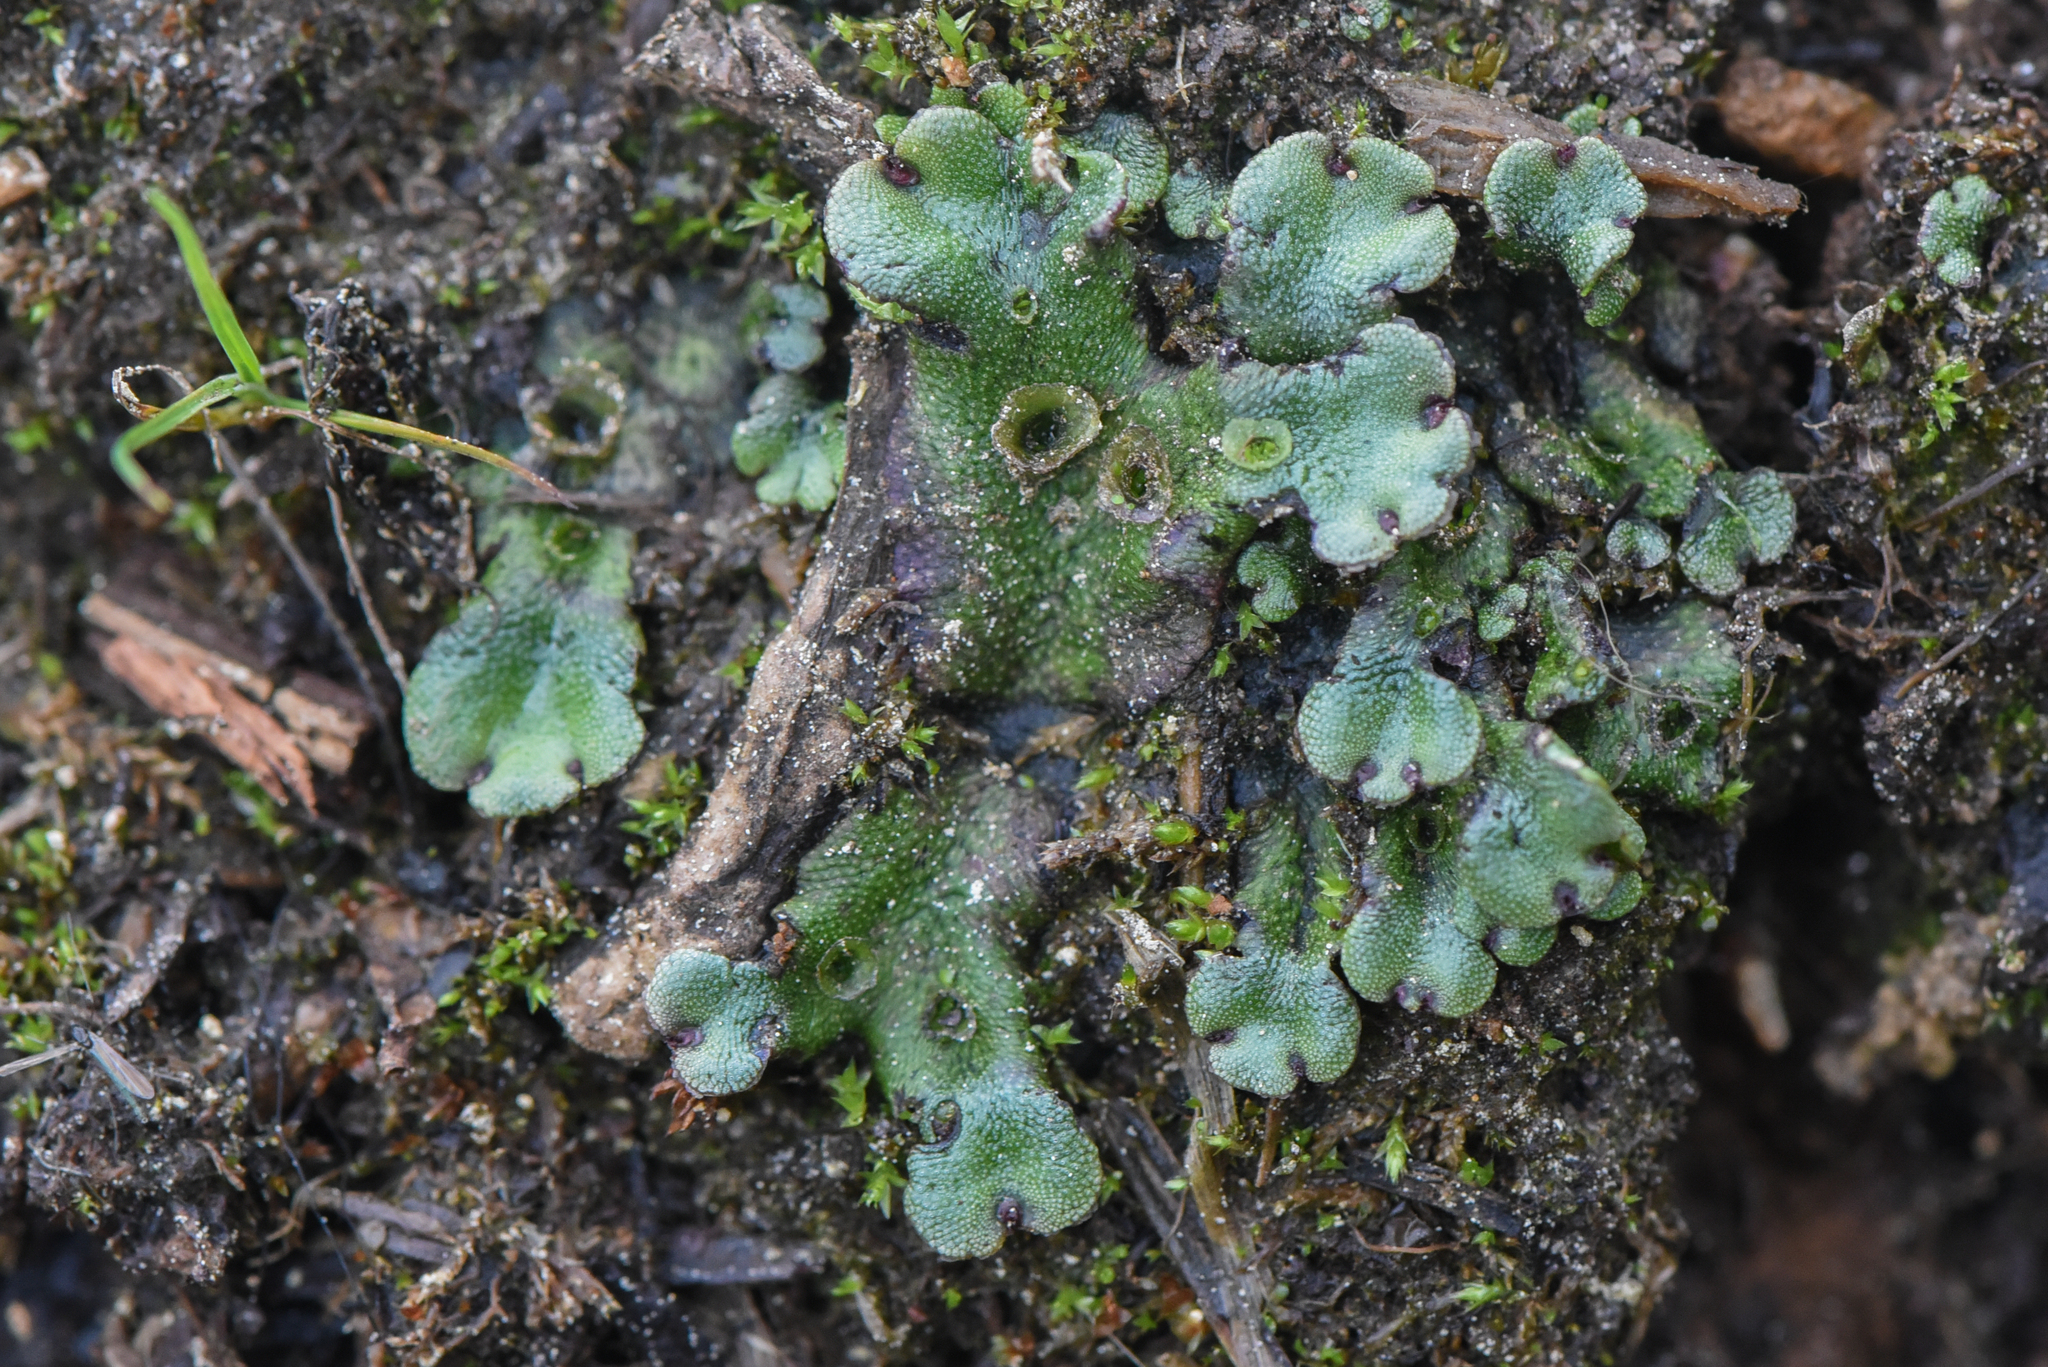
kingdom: Plantae
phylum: Marchantiophyta
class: Marchantiopsida
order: Marchantiales
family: Marchantiaceae
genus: Marchantia
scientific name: Marchantia polymorpha
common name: Common liverwort
